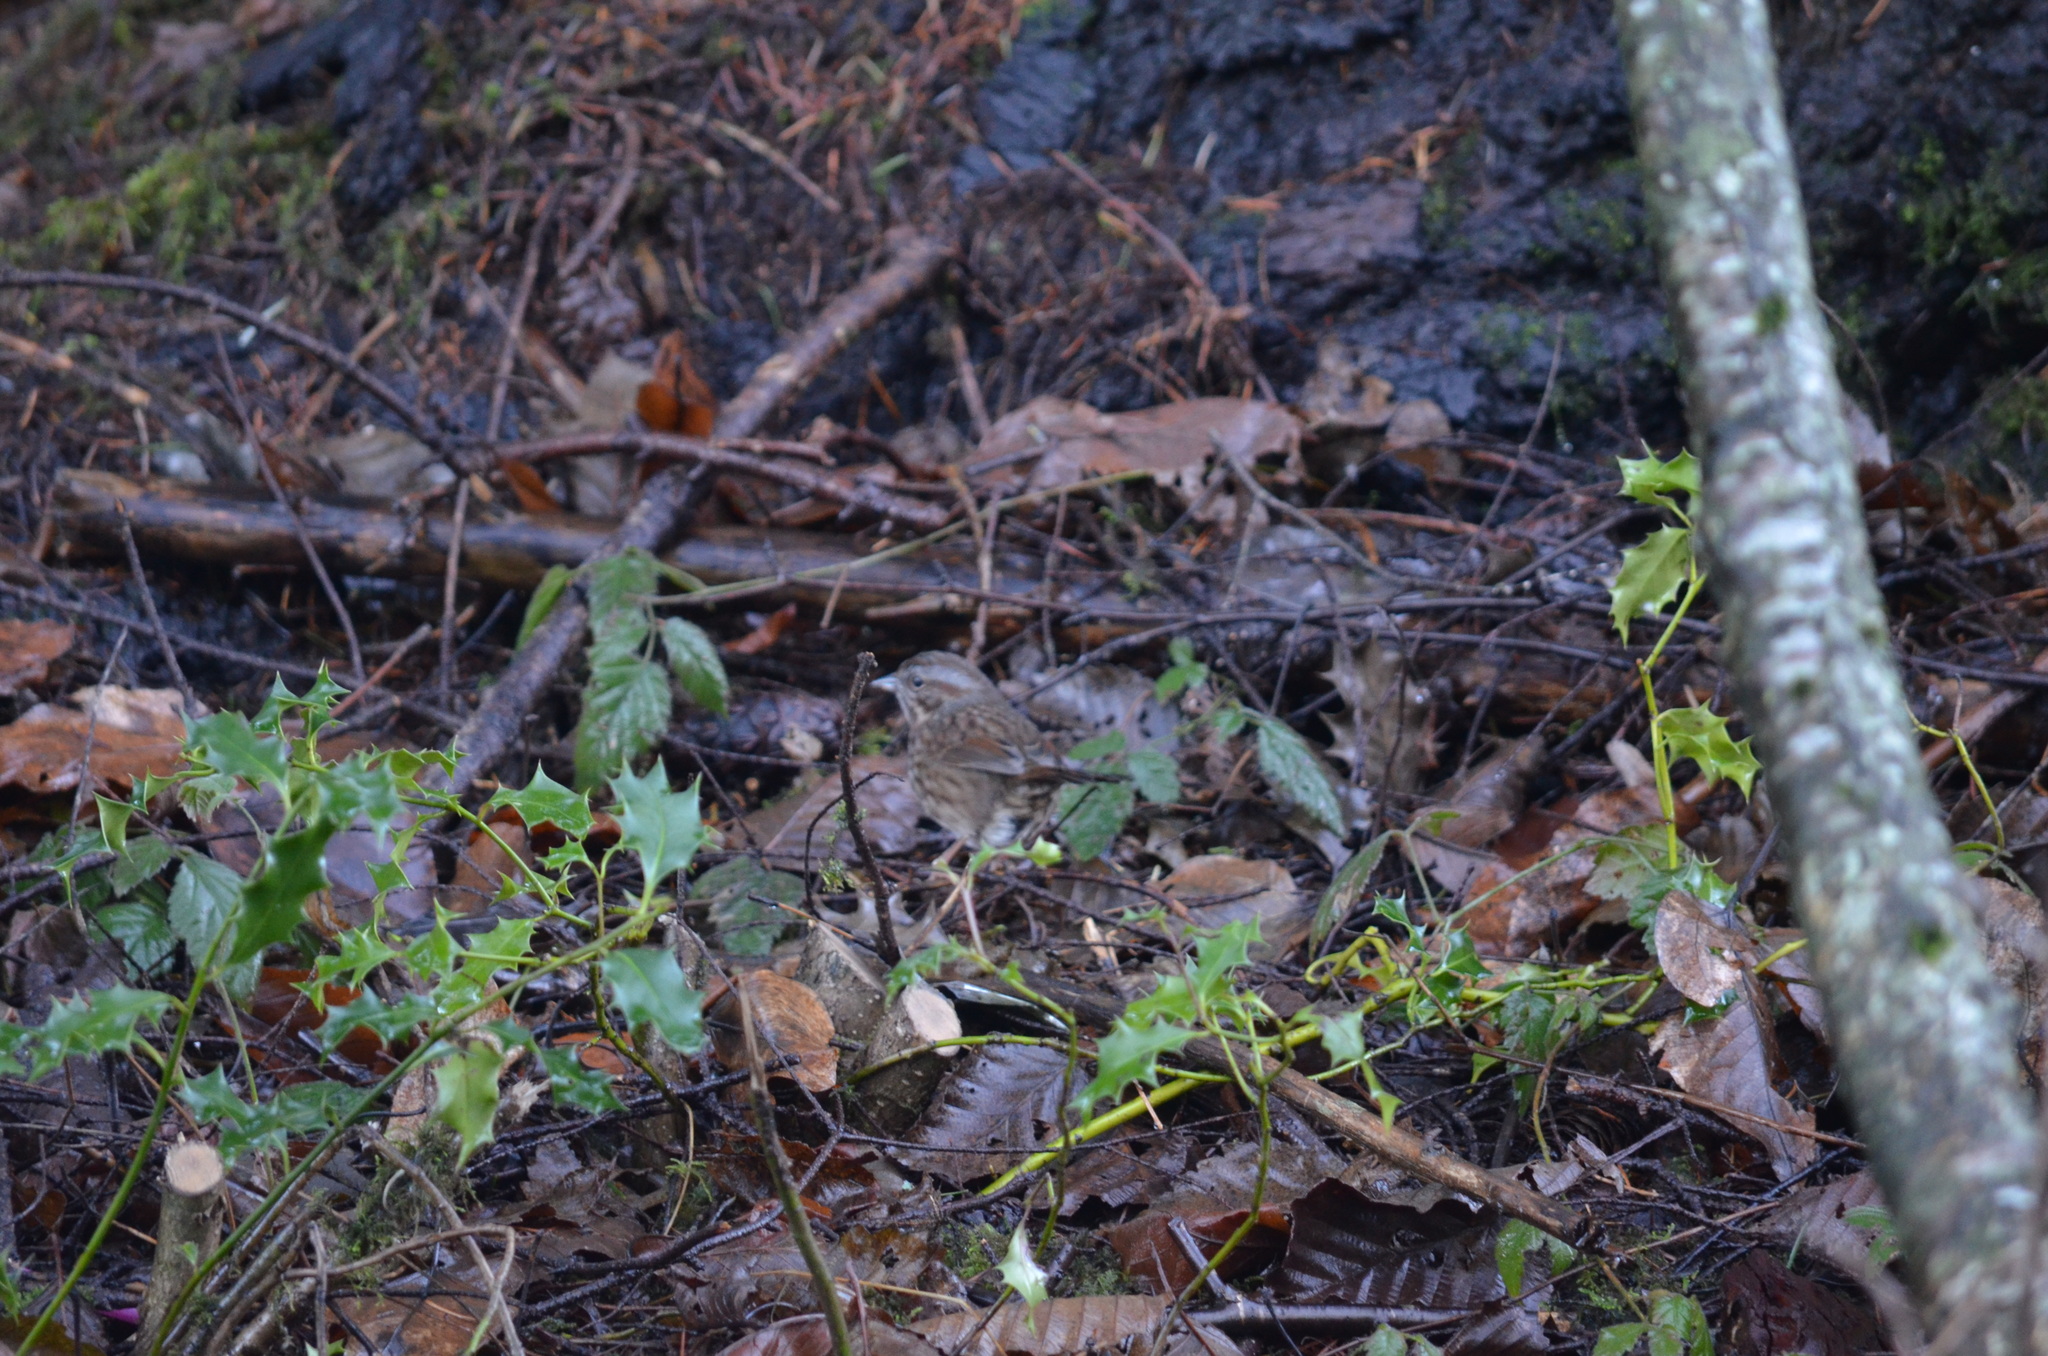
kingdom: Animalia
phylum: Chordata
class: Aves
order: Passeriformes
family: Passerellidae
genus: Melospiza
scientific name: Melospiza melodia
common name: Song sparrow
